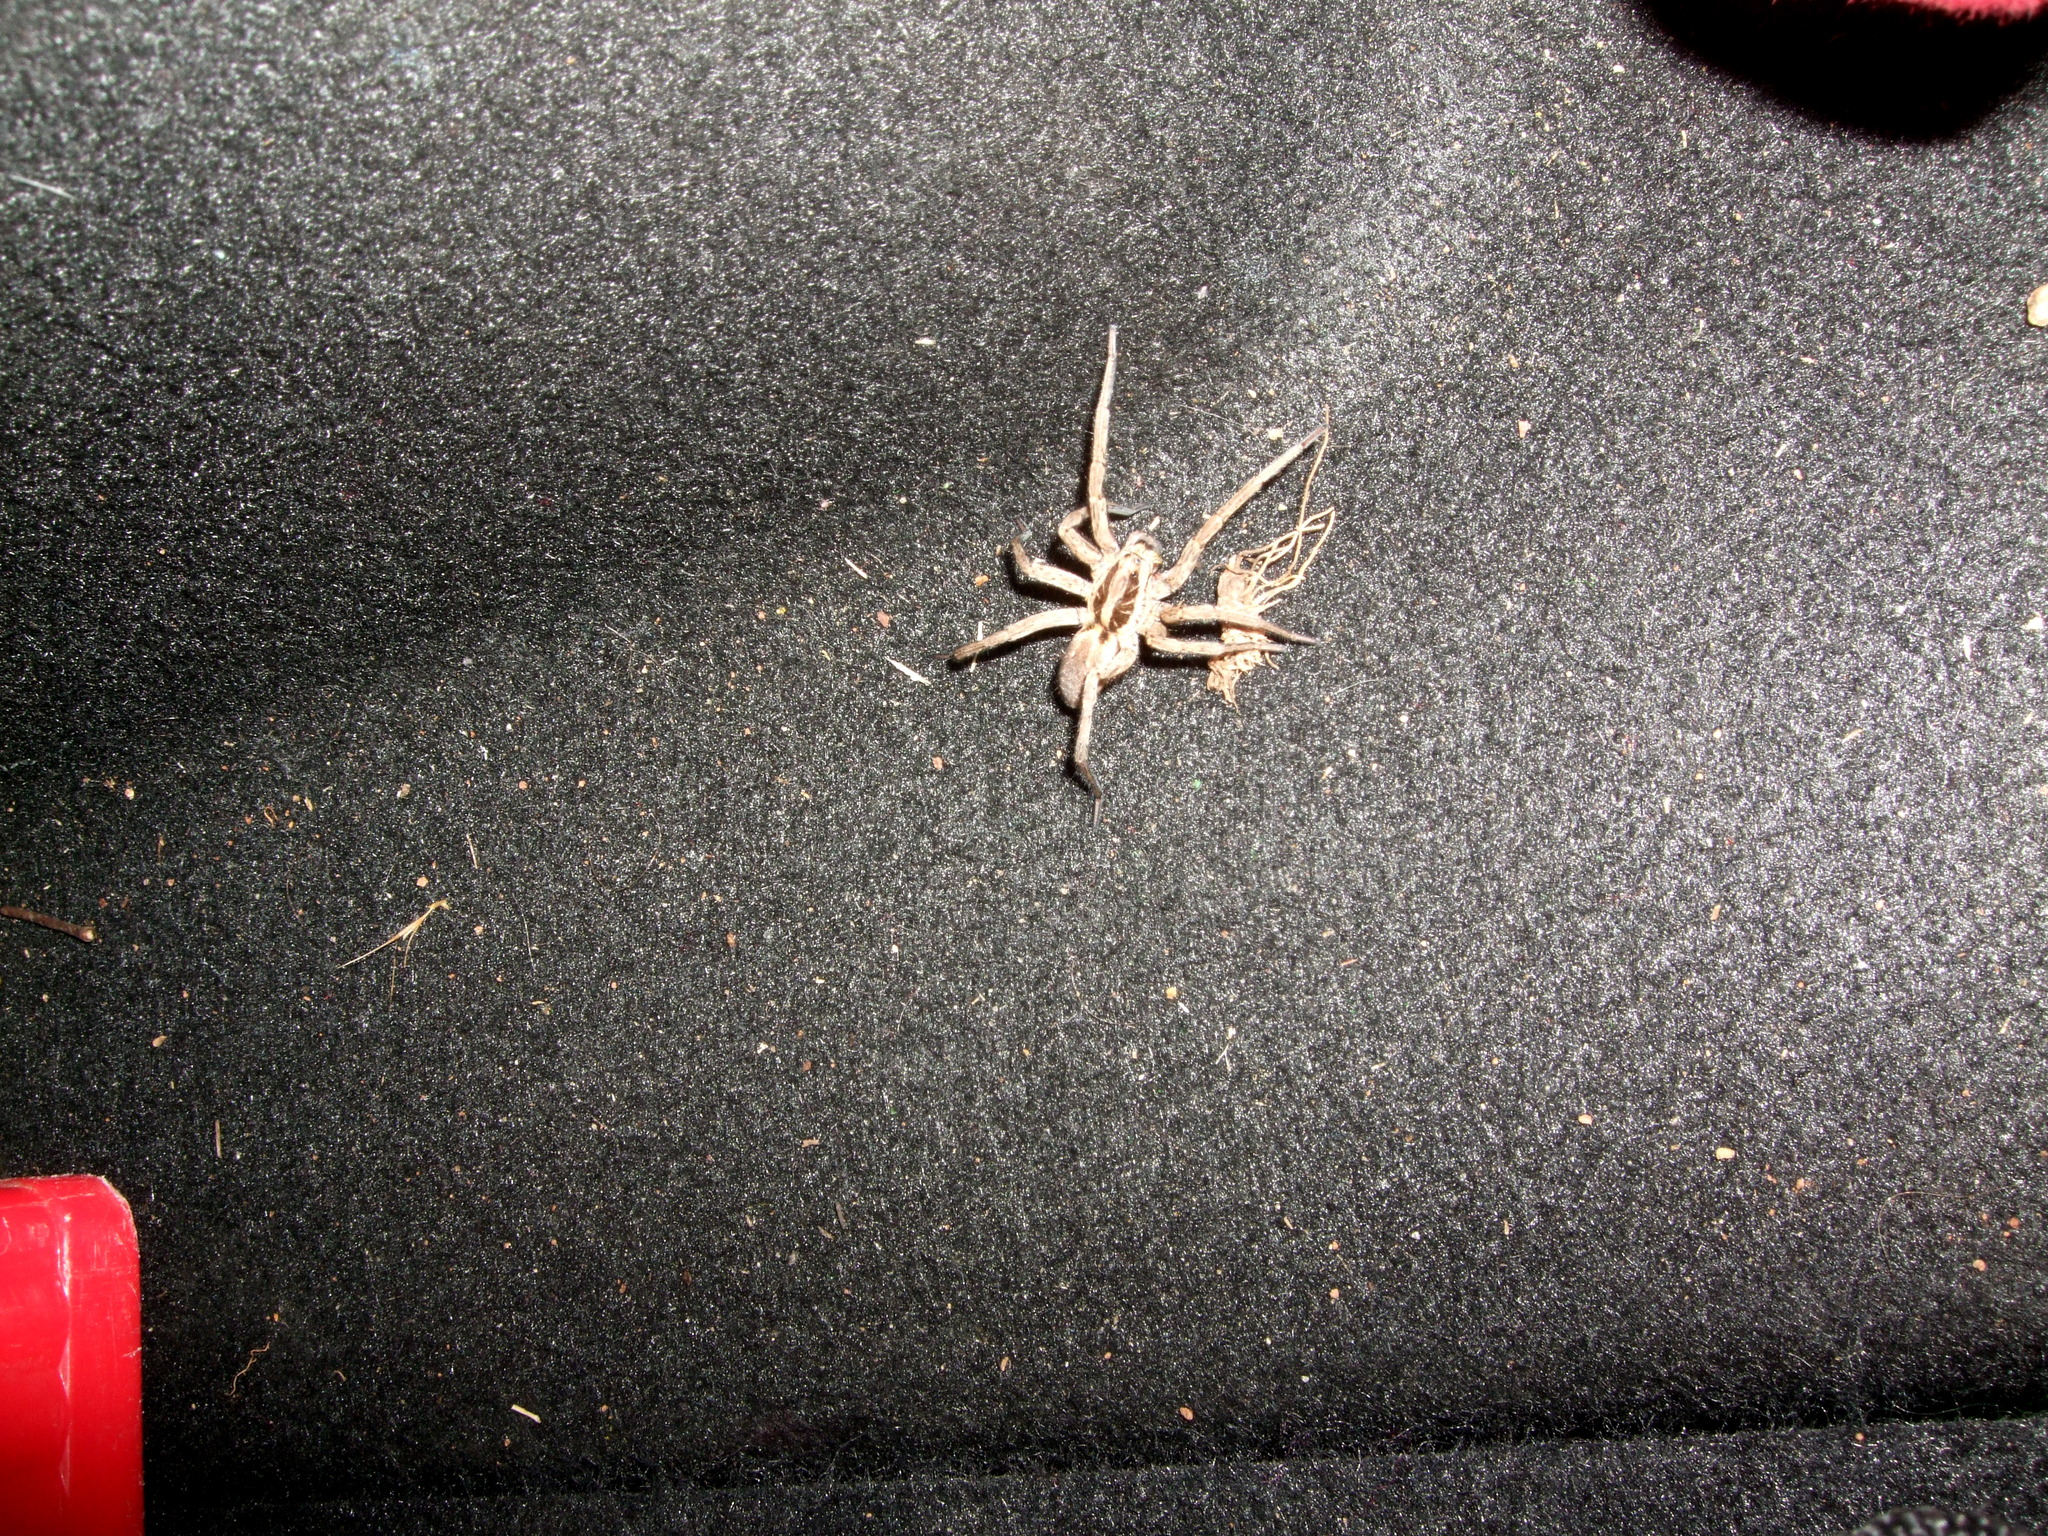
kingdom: Animalia
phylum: Arthropoda
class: Arachnida
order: Araneae
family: Lycosidae
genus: Hogna
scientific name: Hogna radiata
